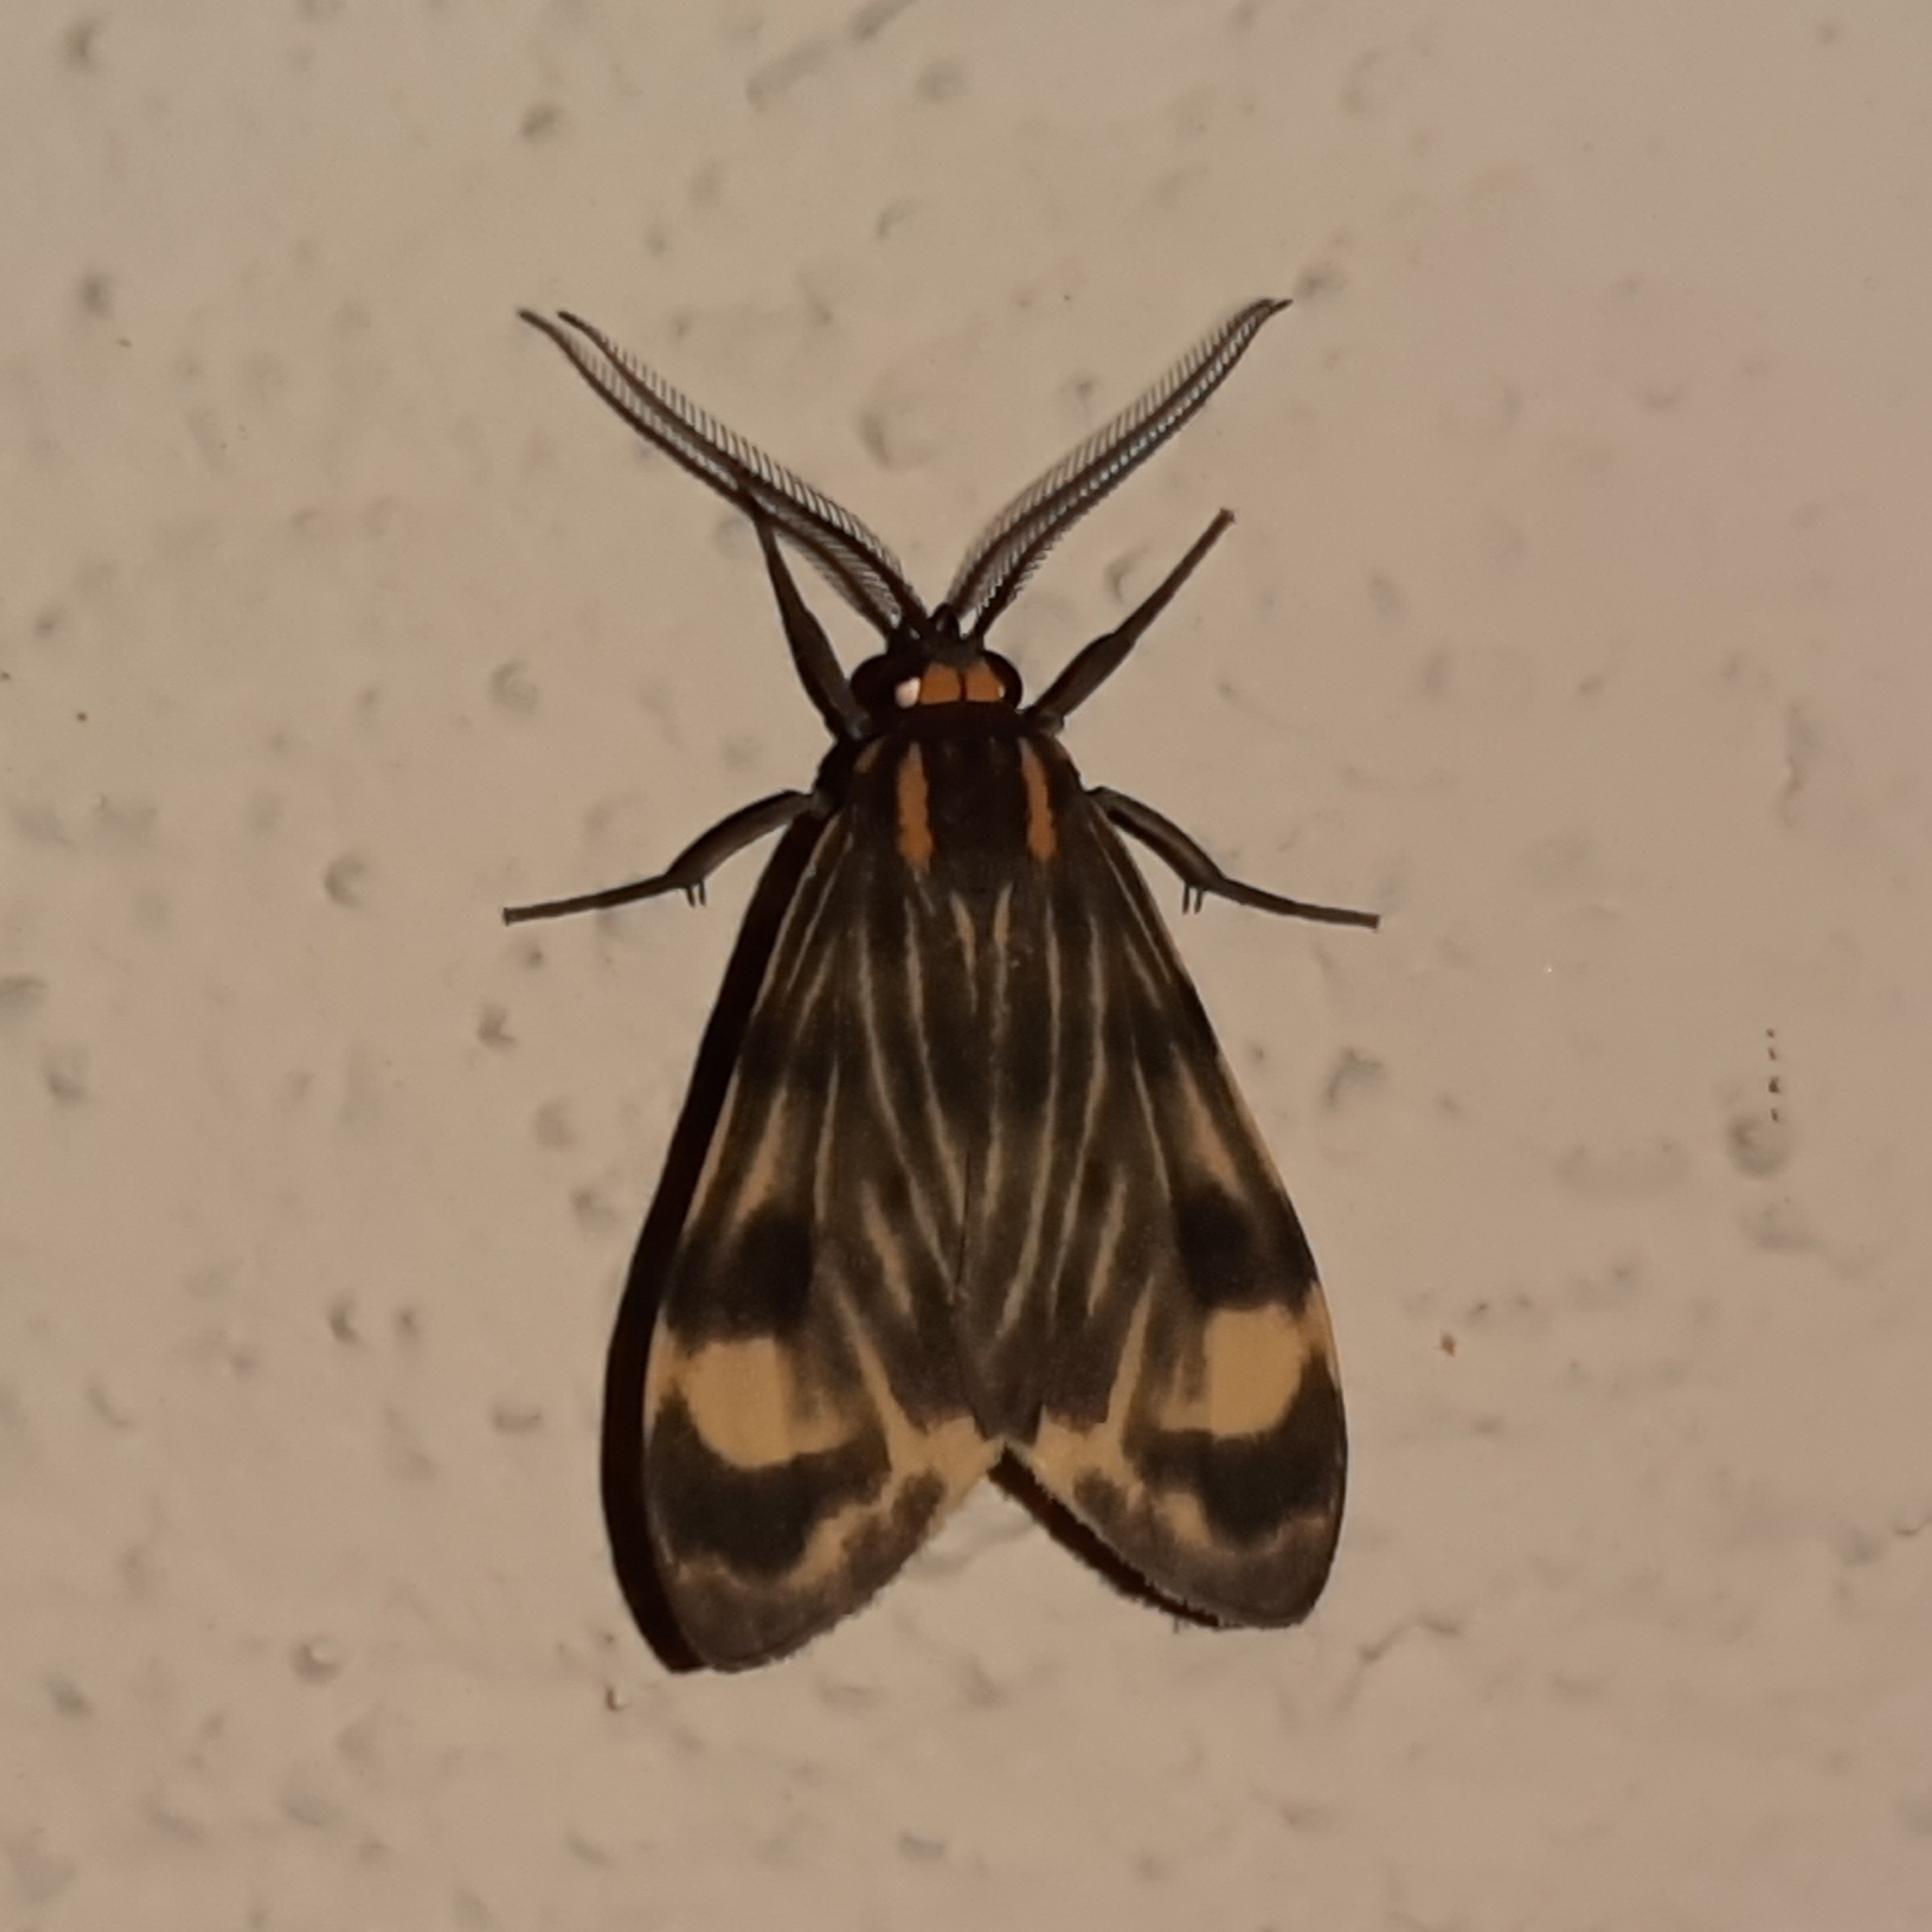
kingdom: Animalia
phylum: Arthropoda
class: Insecta
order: Lepidoptera
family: Erebidae
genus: Eucereon
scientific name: Eucereon costulatum
